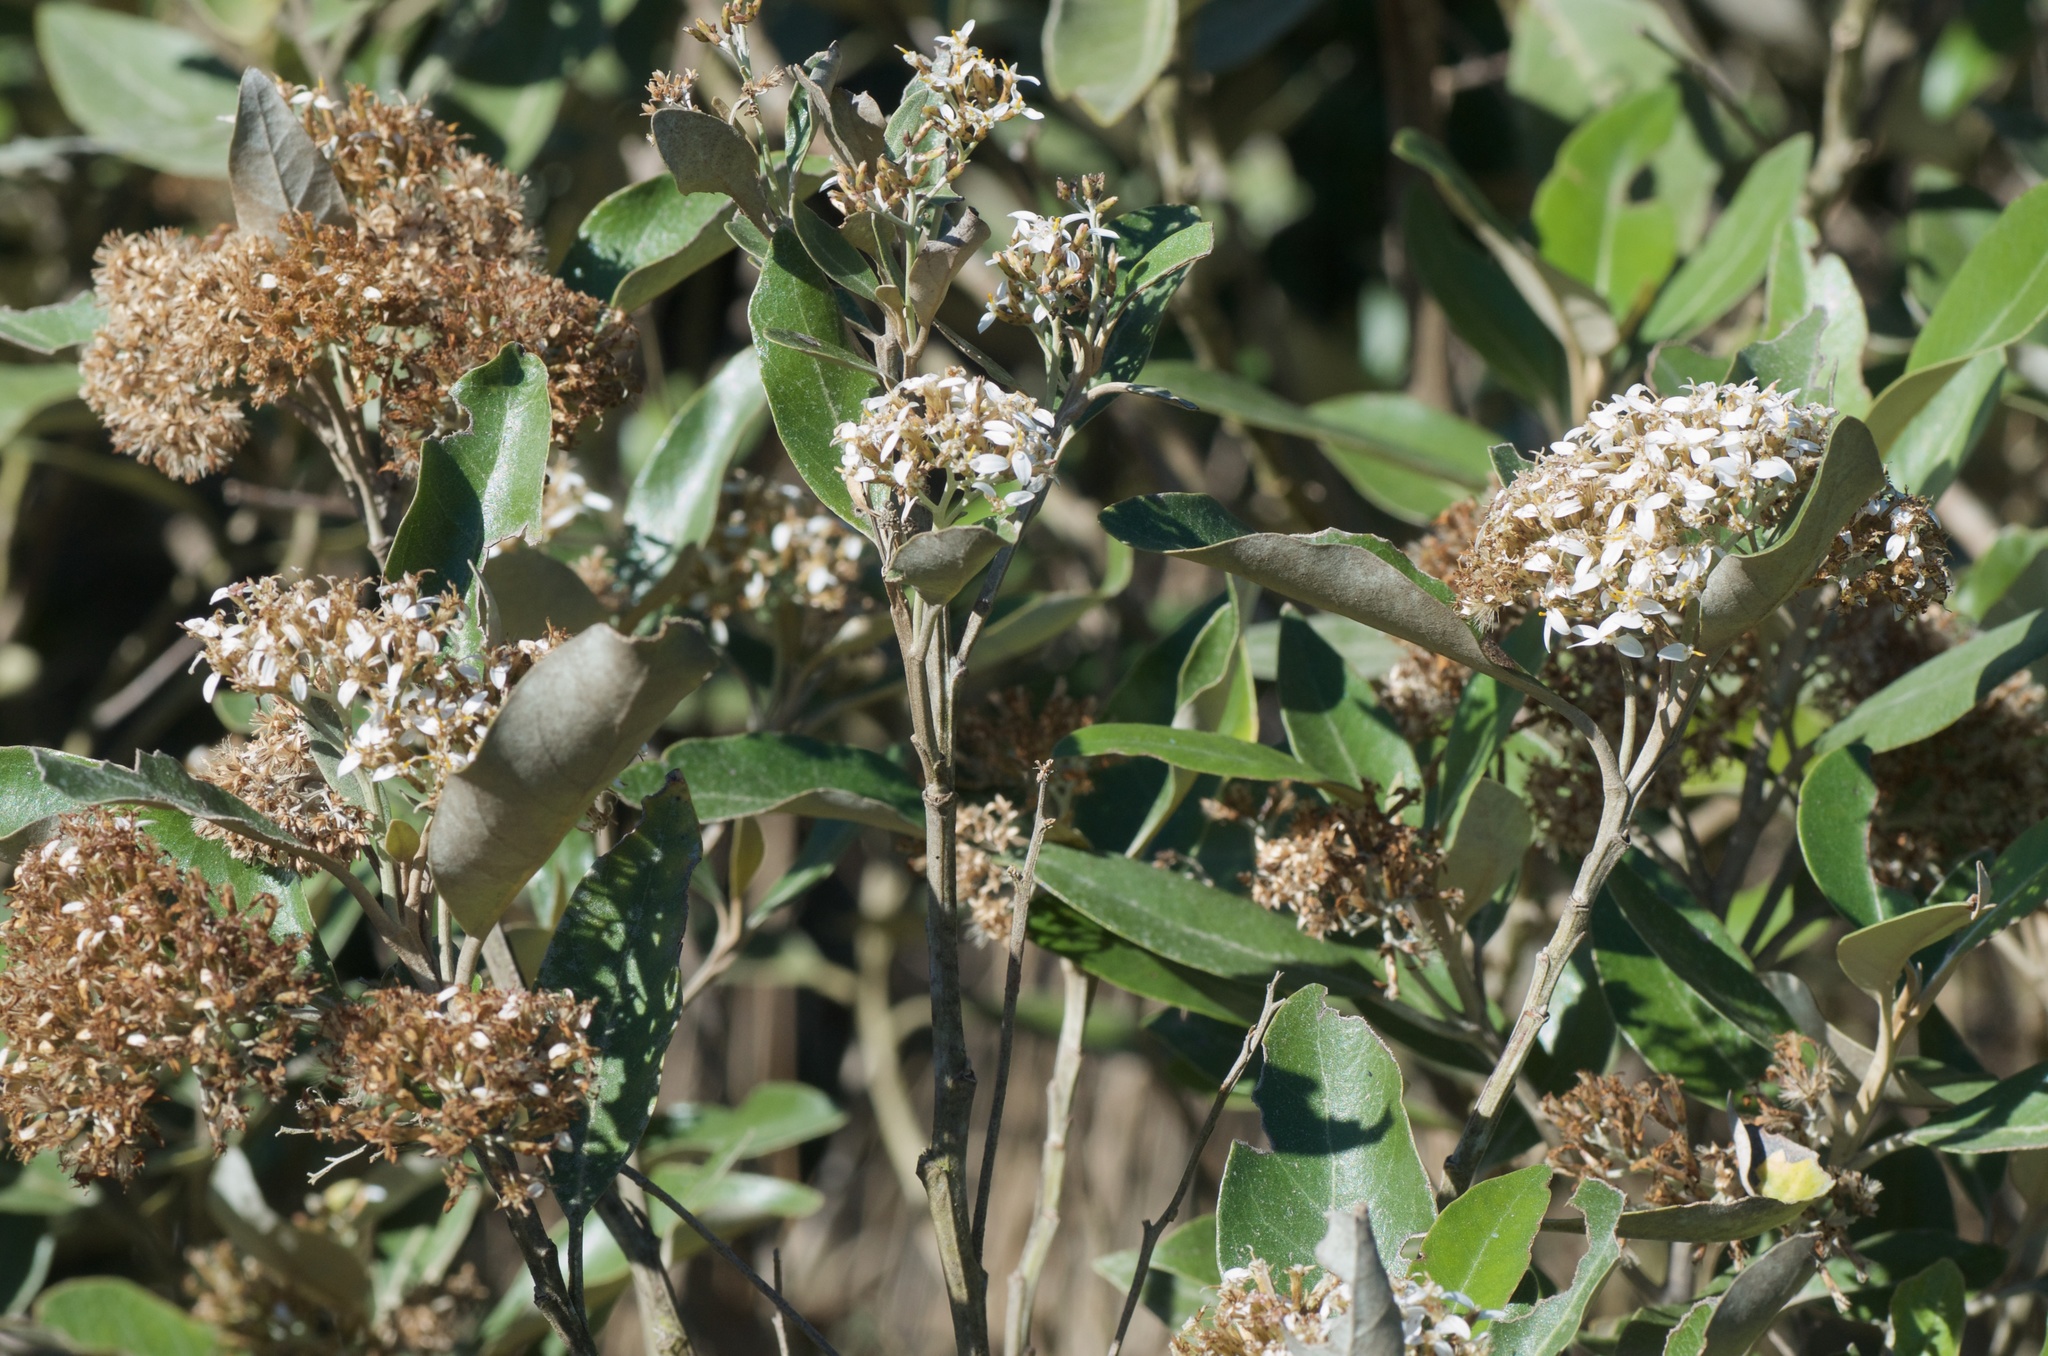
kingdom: Plantae
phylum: Tracheophyta
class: Magnoliopsida
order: Asterales
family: Asteraceae
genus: Olearia
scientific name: Olearia avicenniifolia
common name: Mangrove-leaf daisybush
